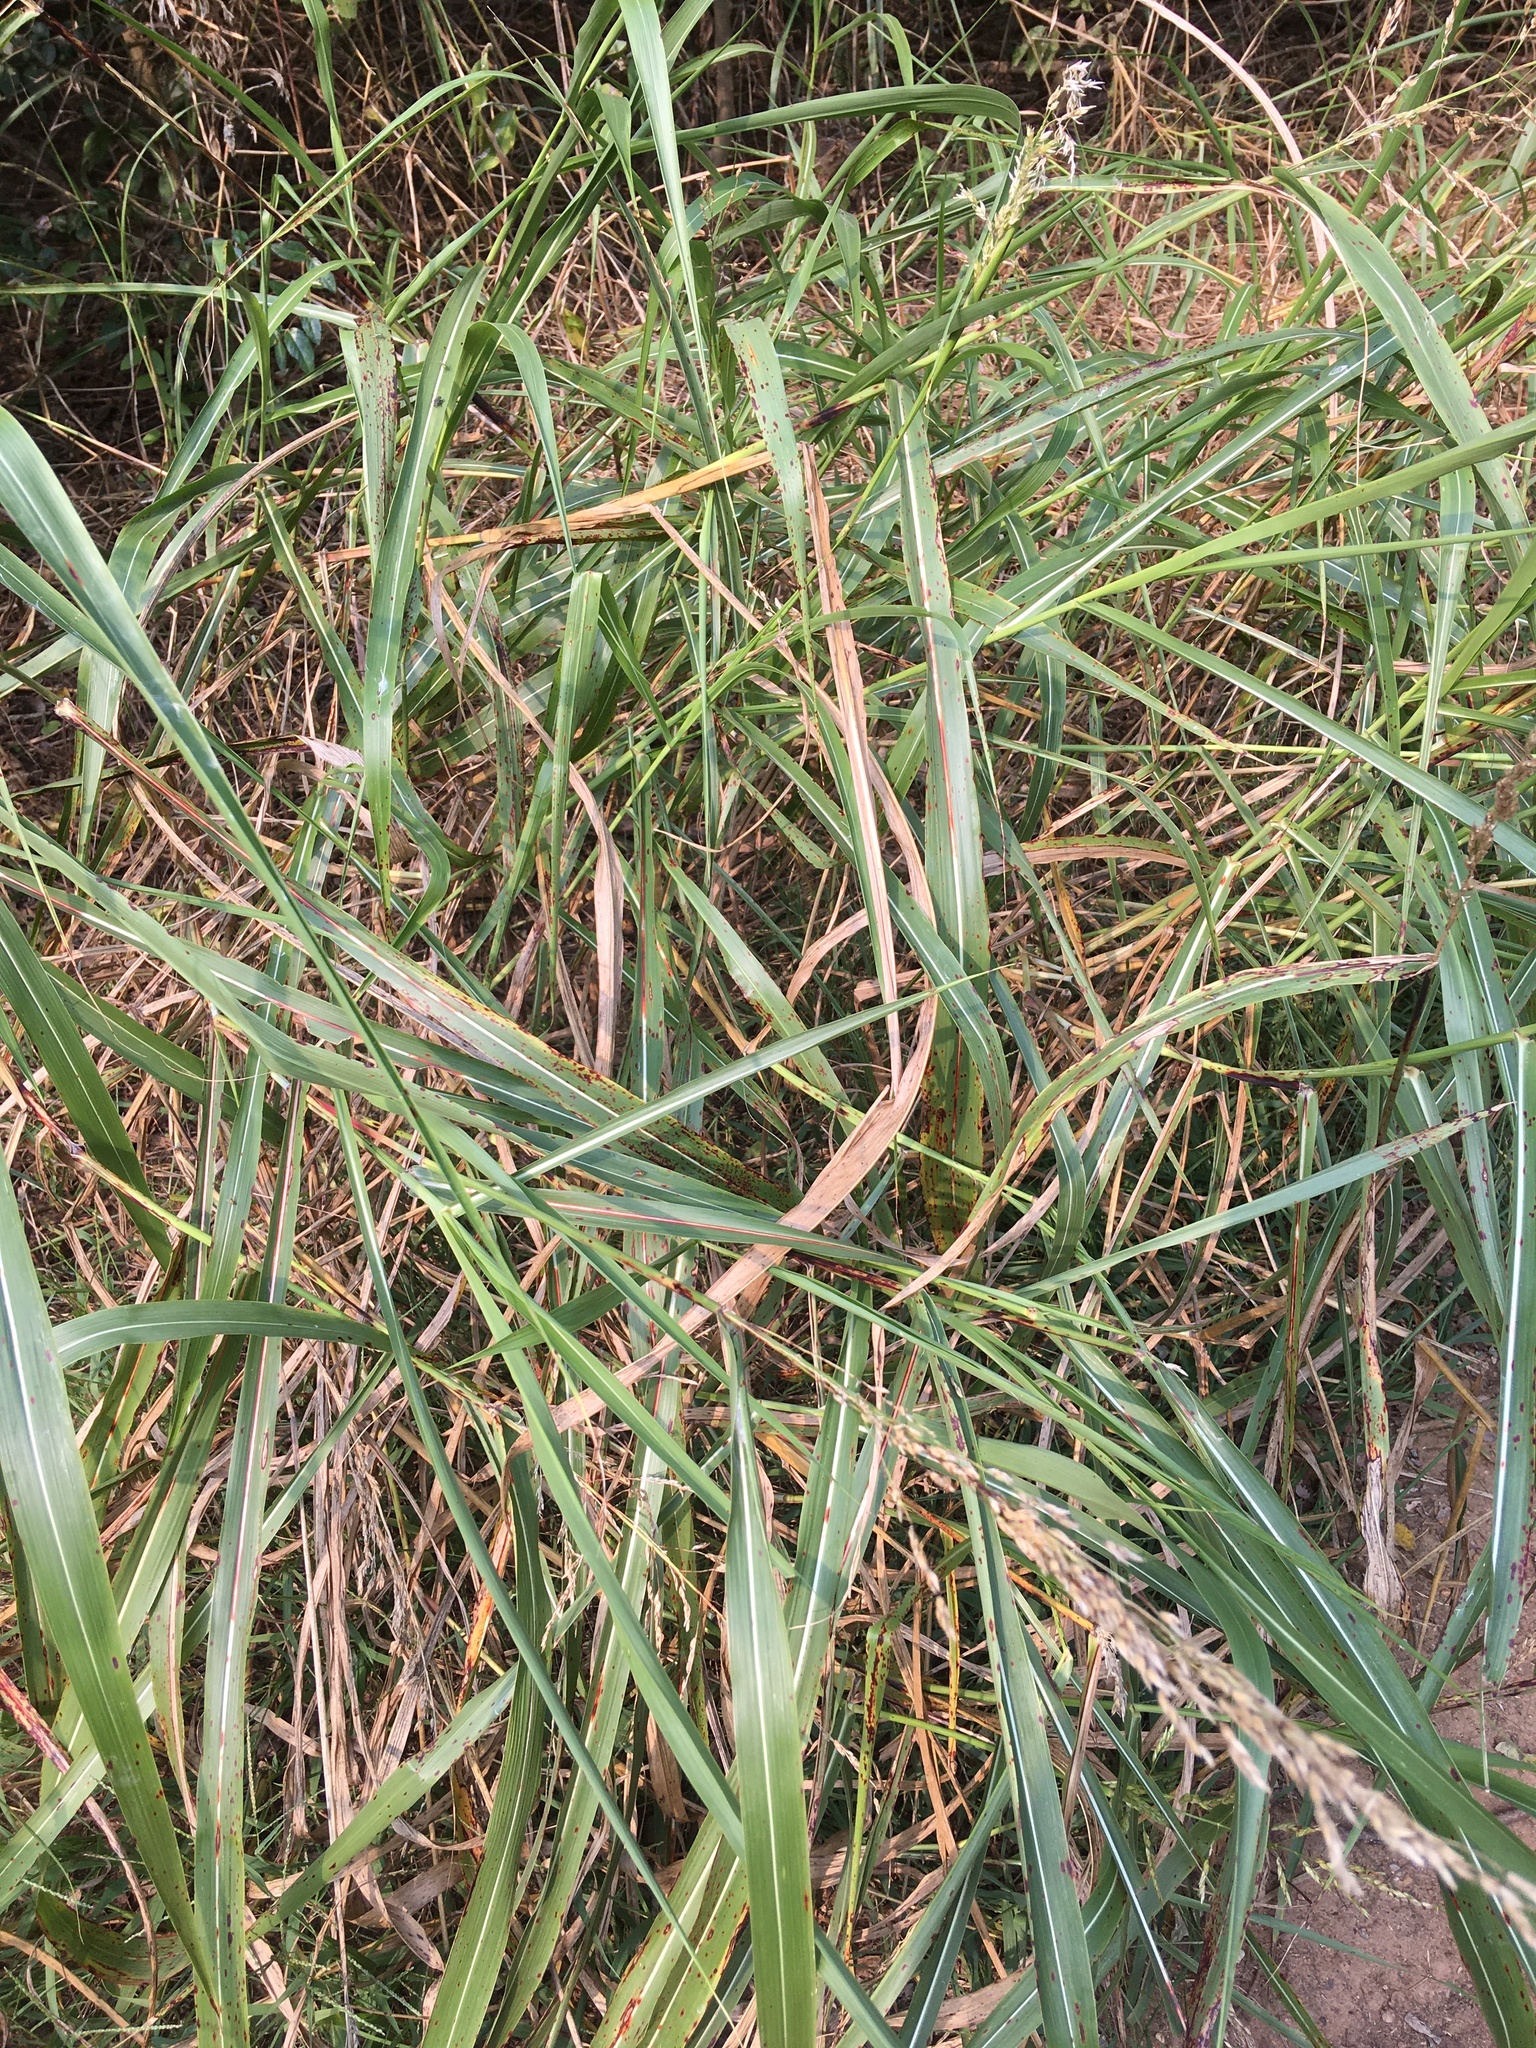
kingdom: Plantae
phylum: Tracheophyta
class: Liliopsida
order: Poales
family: Poaceae
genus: Sorghum
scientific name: Sorghum halepense
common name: Johnson-grass
